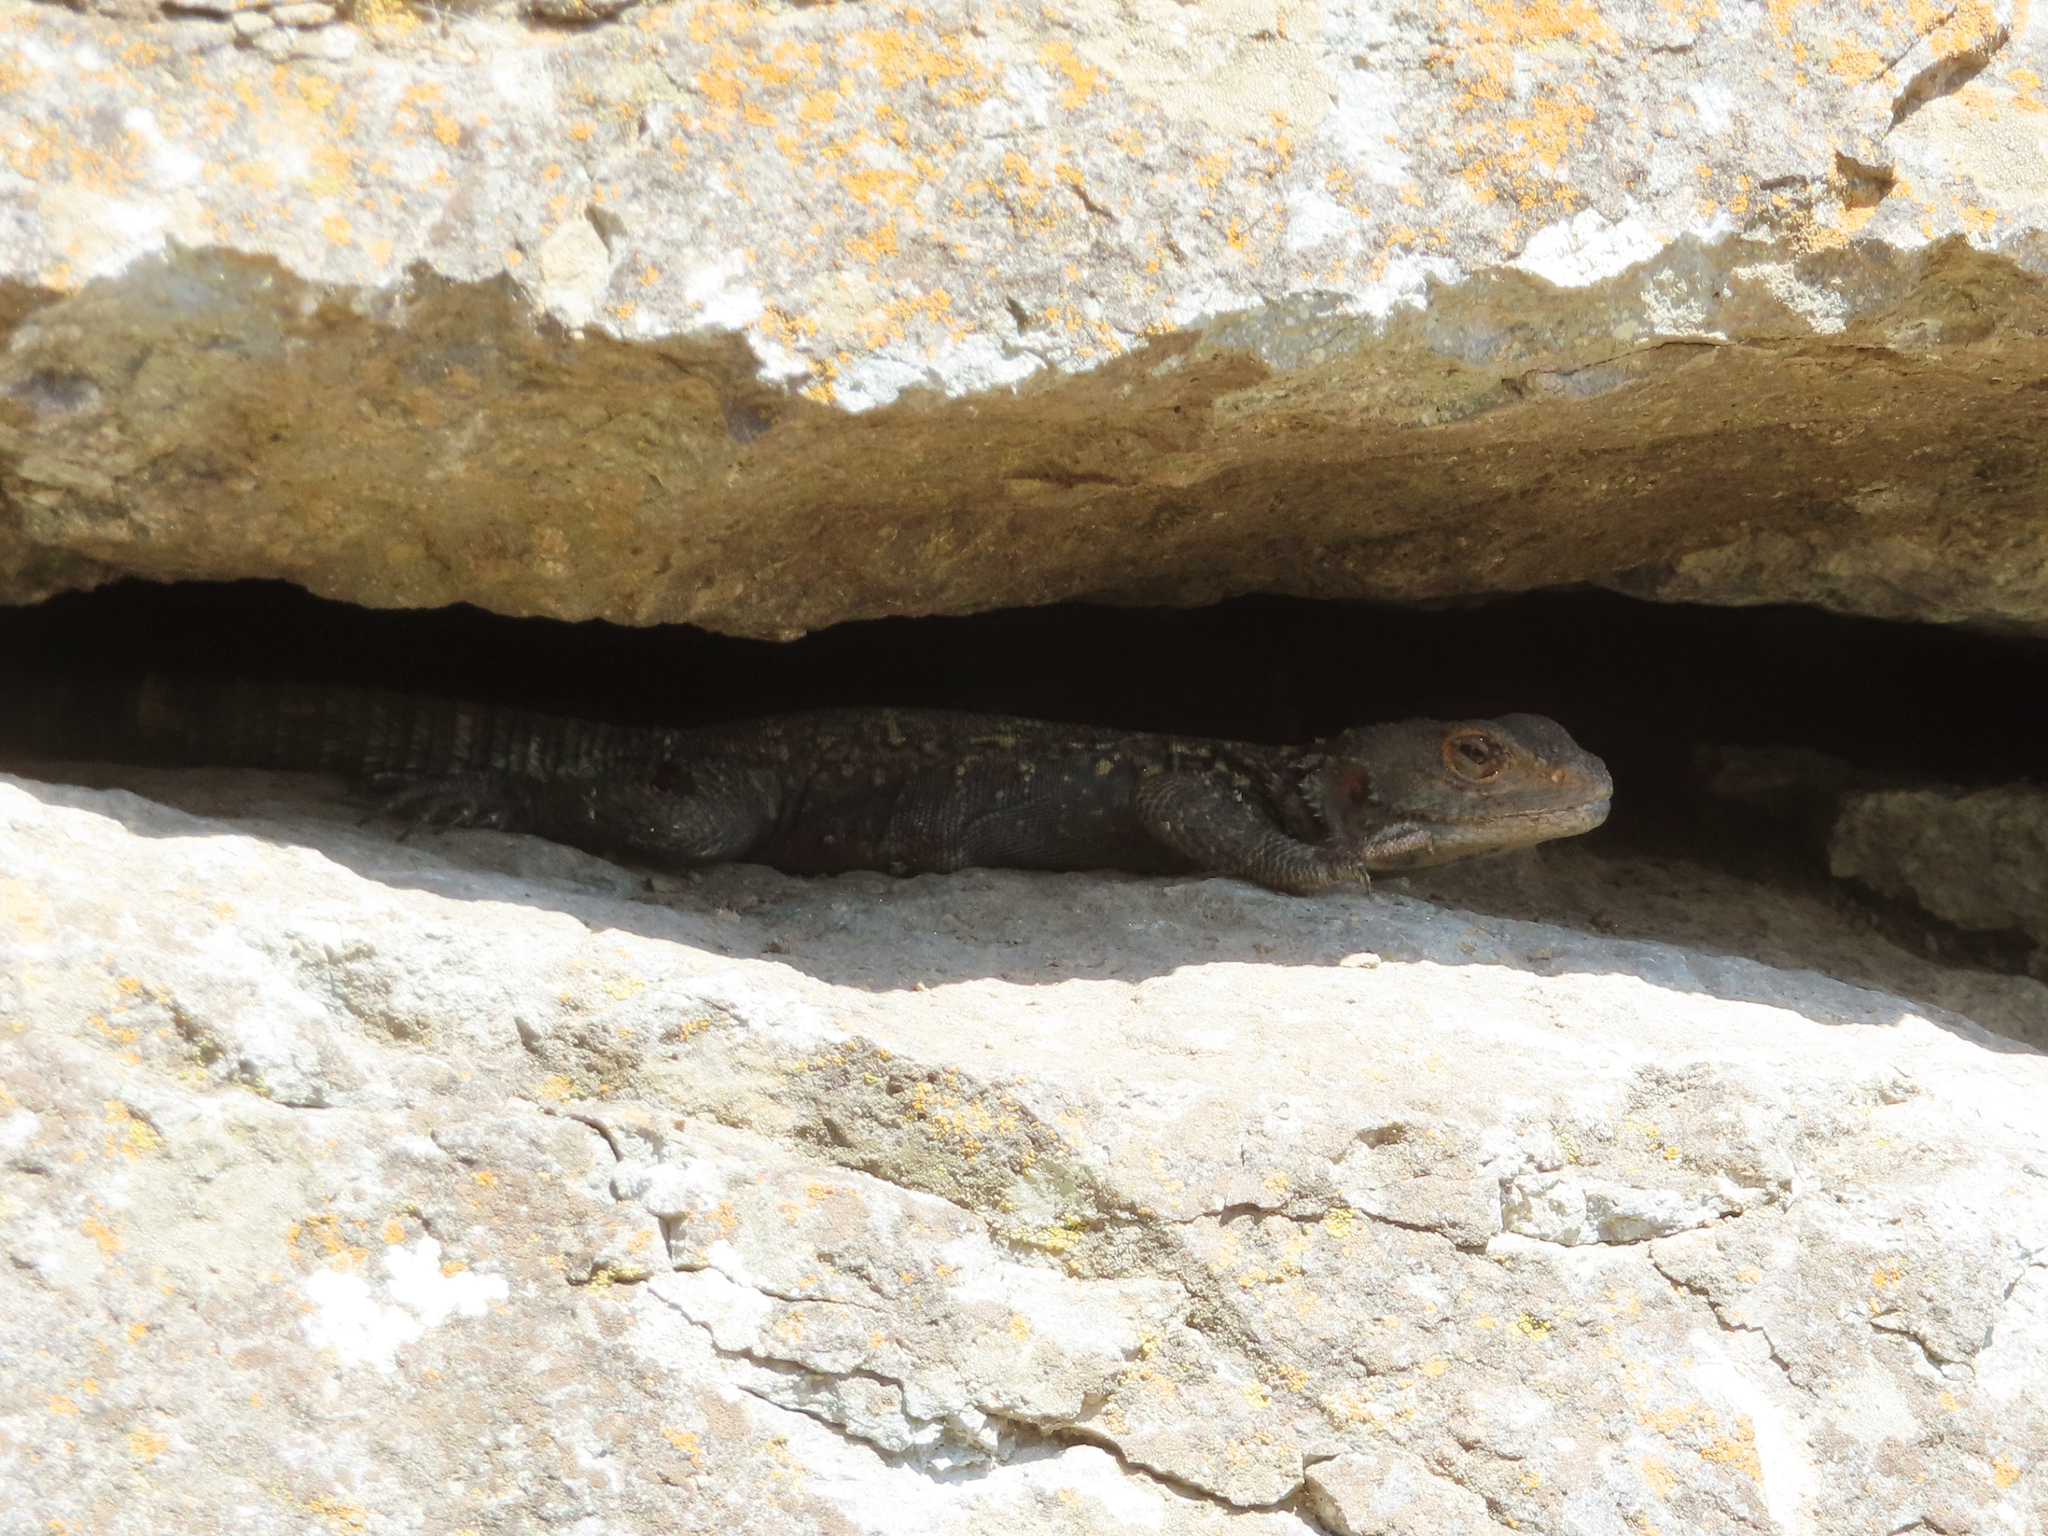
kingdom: Animalia
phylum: Chordata
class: Squamata
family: Agamidae
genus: Paralaudakia
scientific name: Paralaudakia caucasia
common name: Caucasian agama
